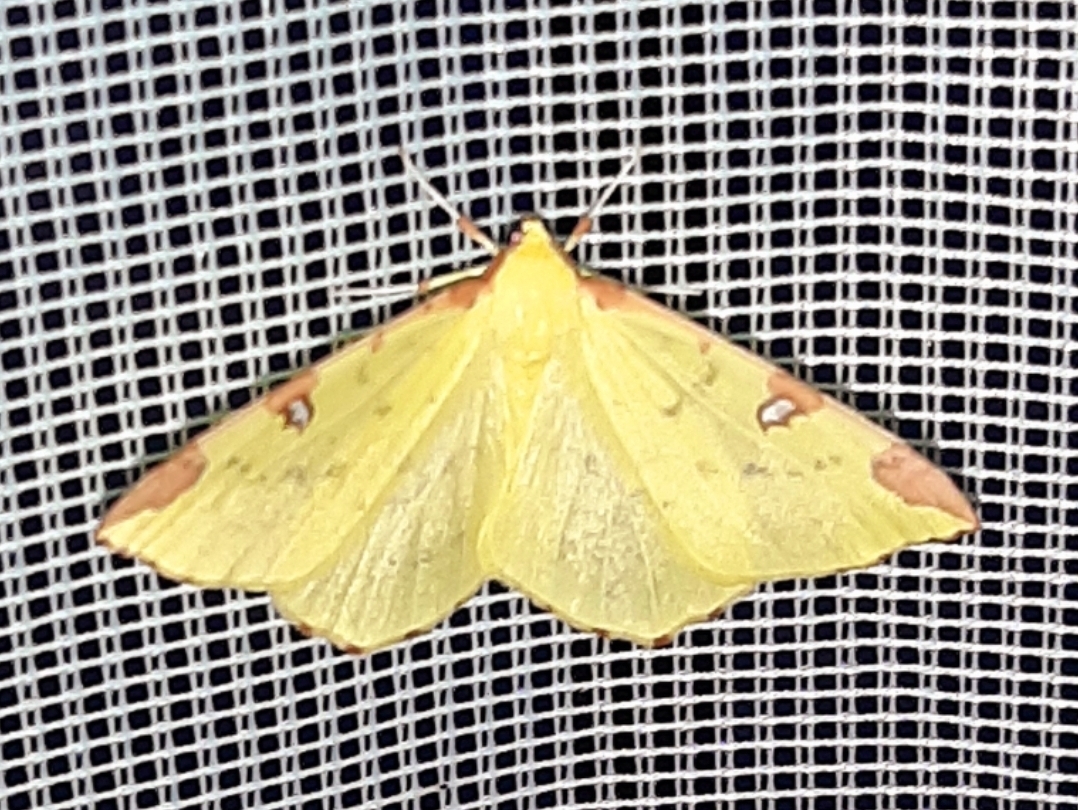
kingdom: Animalia
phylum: Arthropoda
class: Insecta
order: Lepidoptera
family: Geometridae
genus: Opisthograptis
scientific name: Opisthograptis luteolata
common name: Brimstone moth
